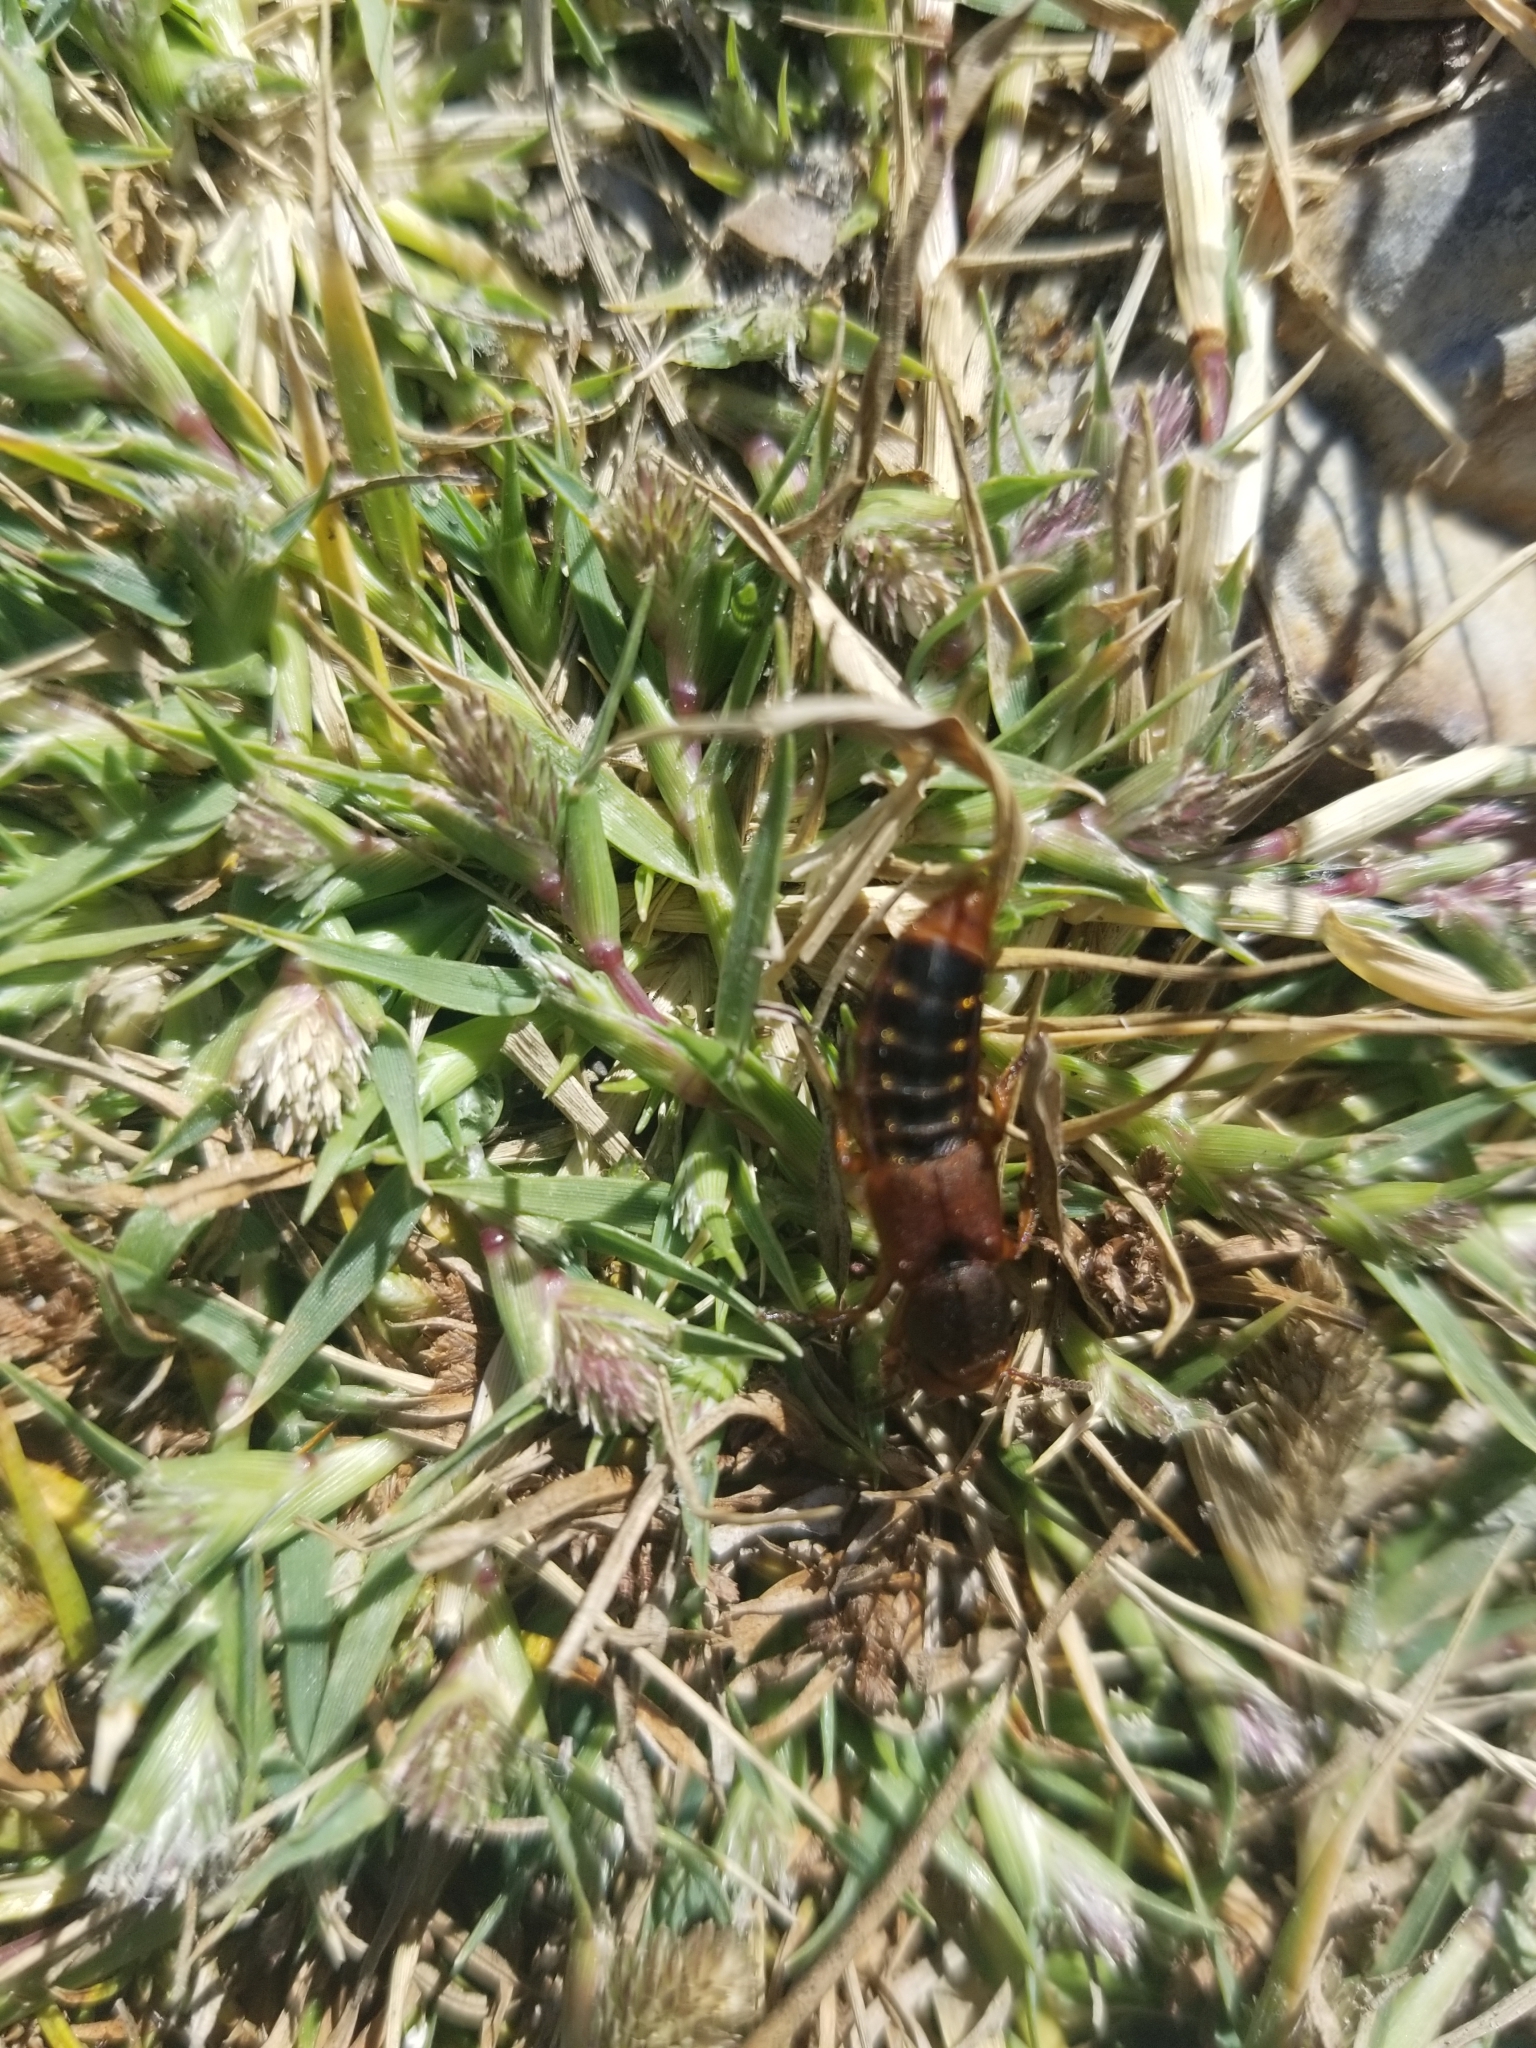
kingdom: Animalia
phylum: Arthropoda
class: Insecta
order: Coleoptera
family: Staphylinidae
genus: Platydracus
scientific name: Platydracus immaculatus
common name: Immaculate rove beetle
